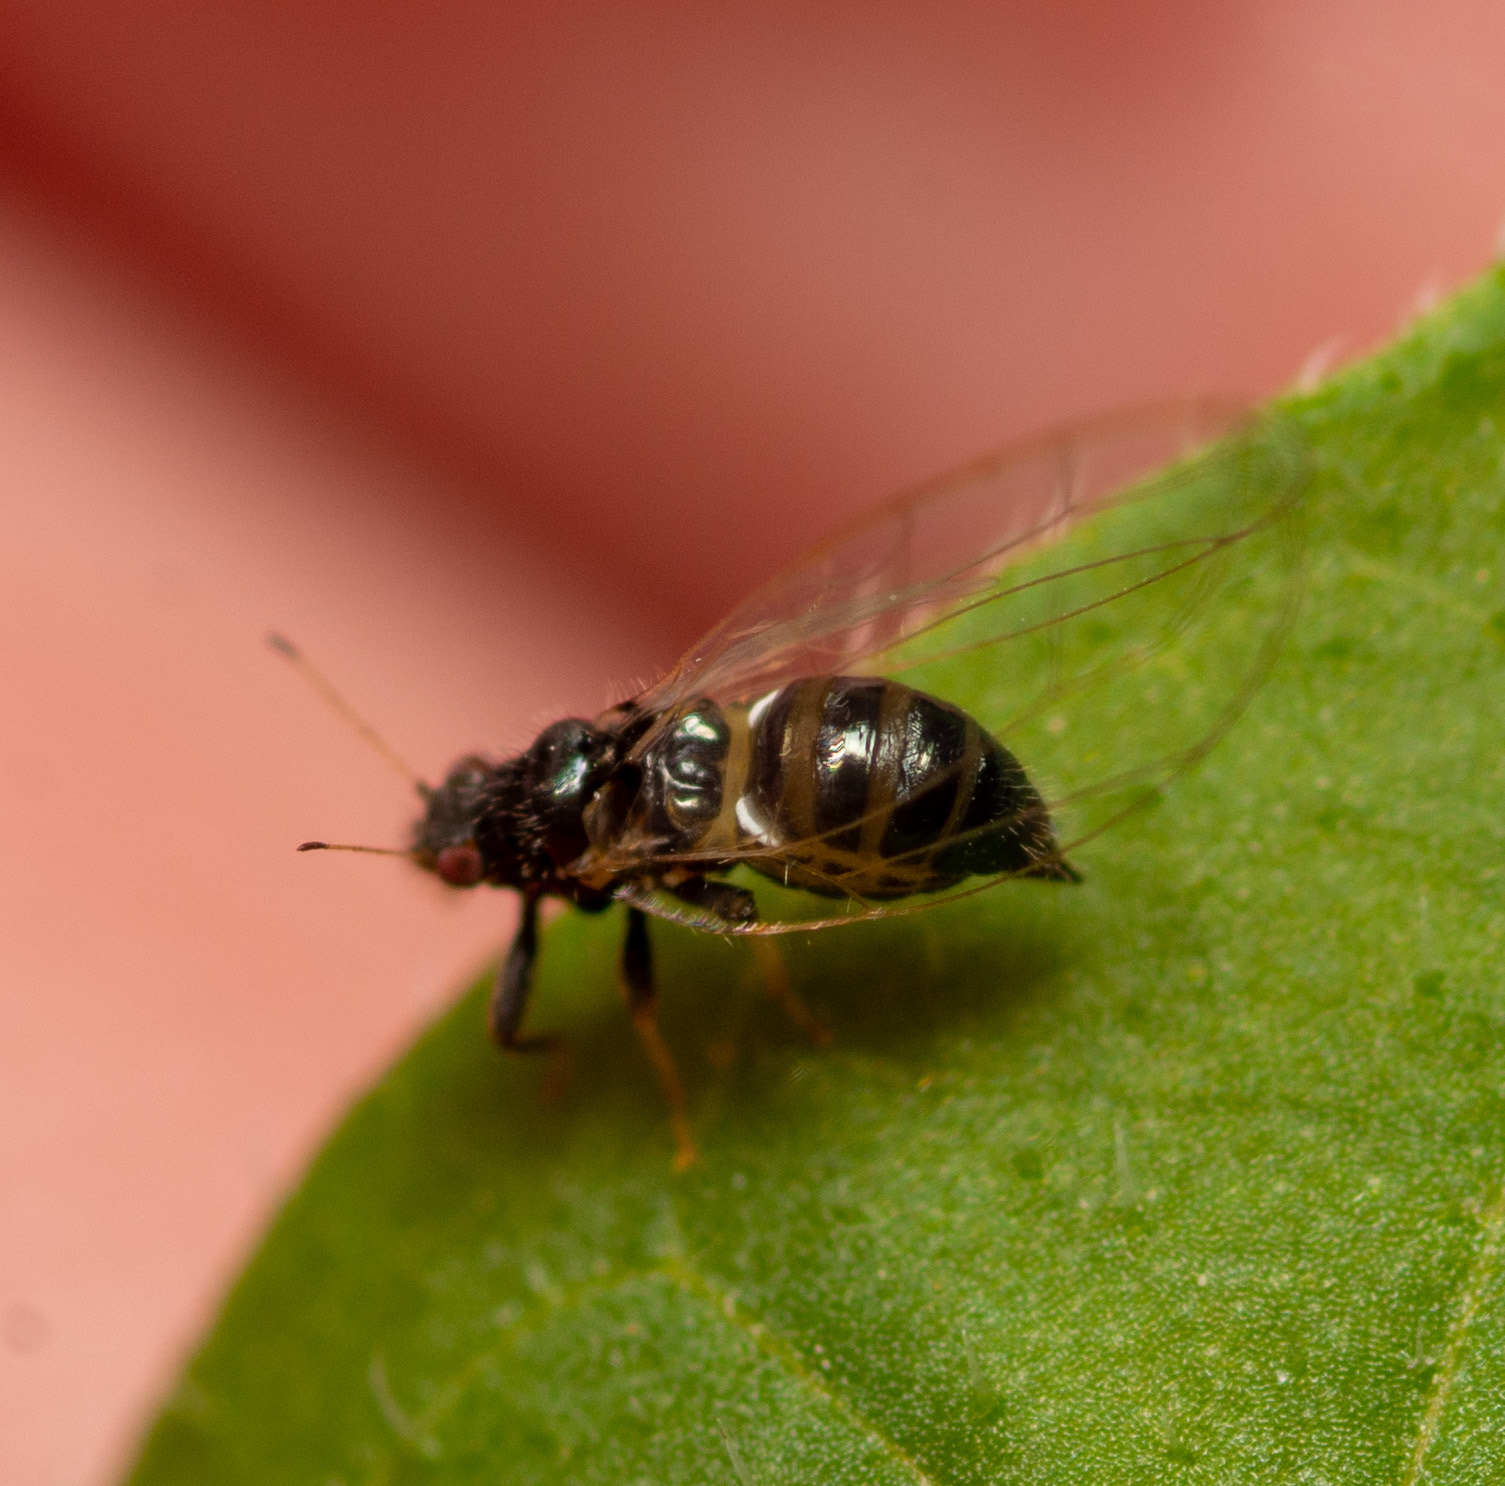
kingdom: Animalia
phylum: Arthropoda
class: Insecta
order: Hemiptera
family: Triozidae
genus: Baeoalitriozus
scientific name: Baeoalitriozus diospyri
